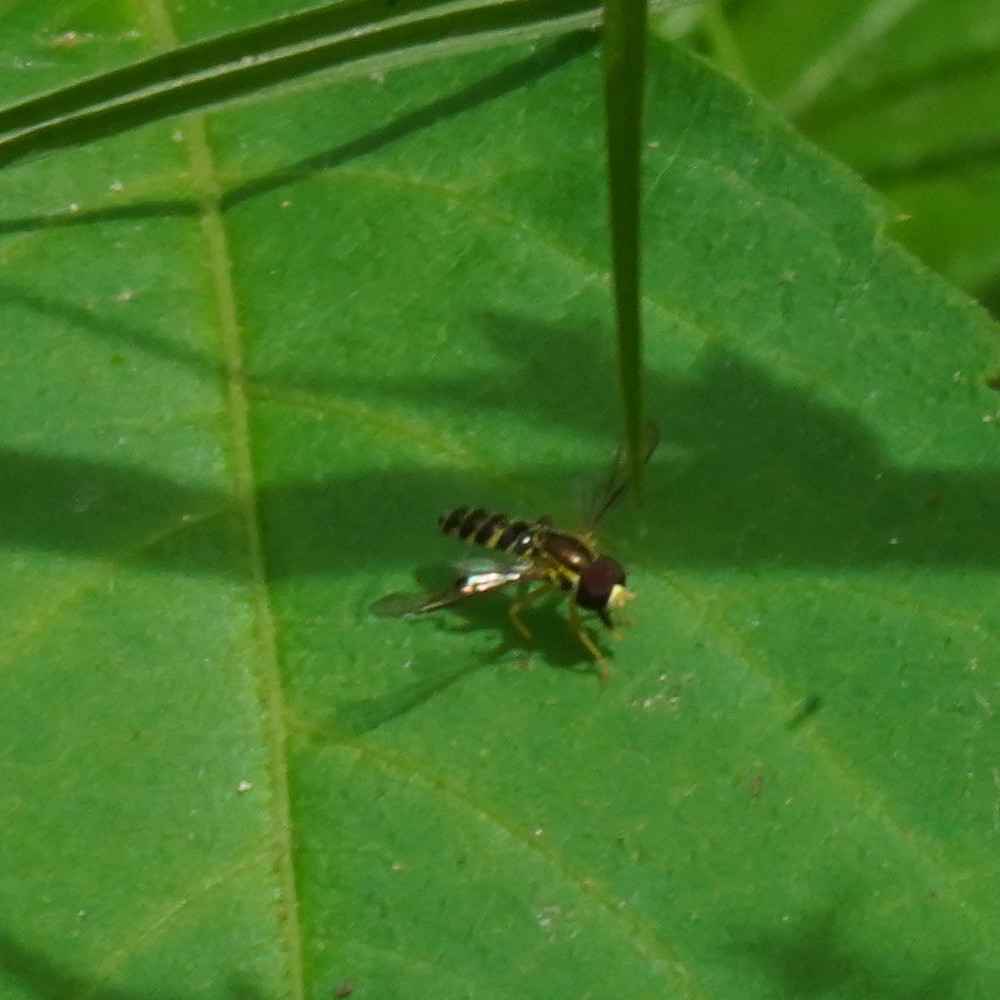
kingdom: Animalia
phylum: Arthropoda
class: Insecta
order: Diptera
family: Syrphidae
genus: Toxomerus
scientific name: Toxomerus geminatus
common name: Eastern calligrapher
